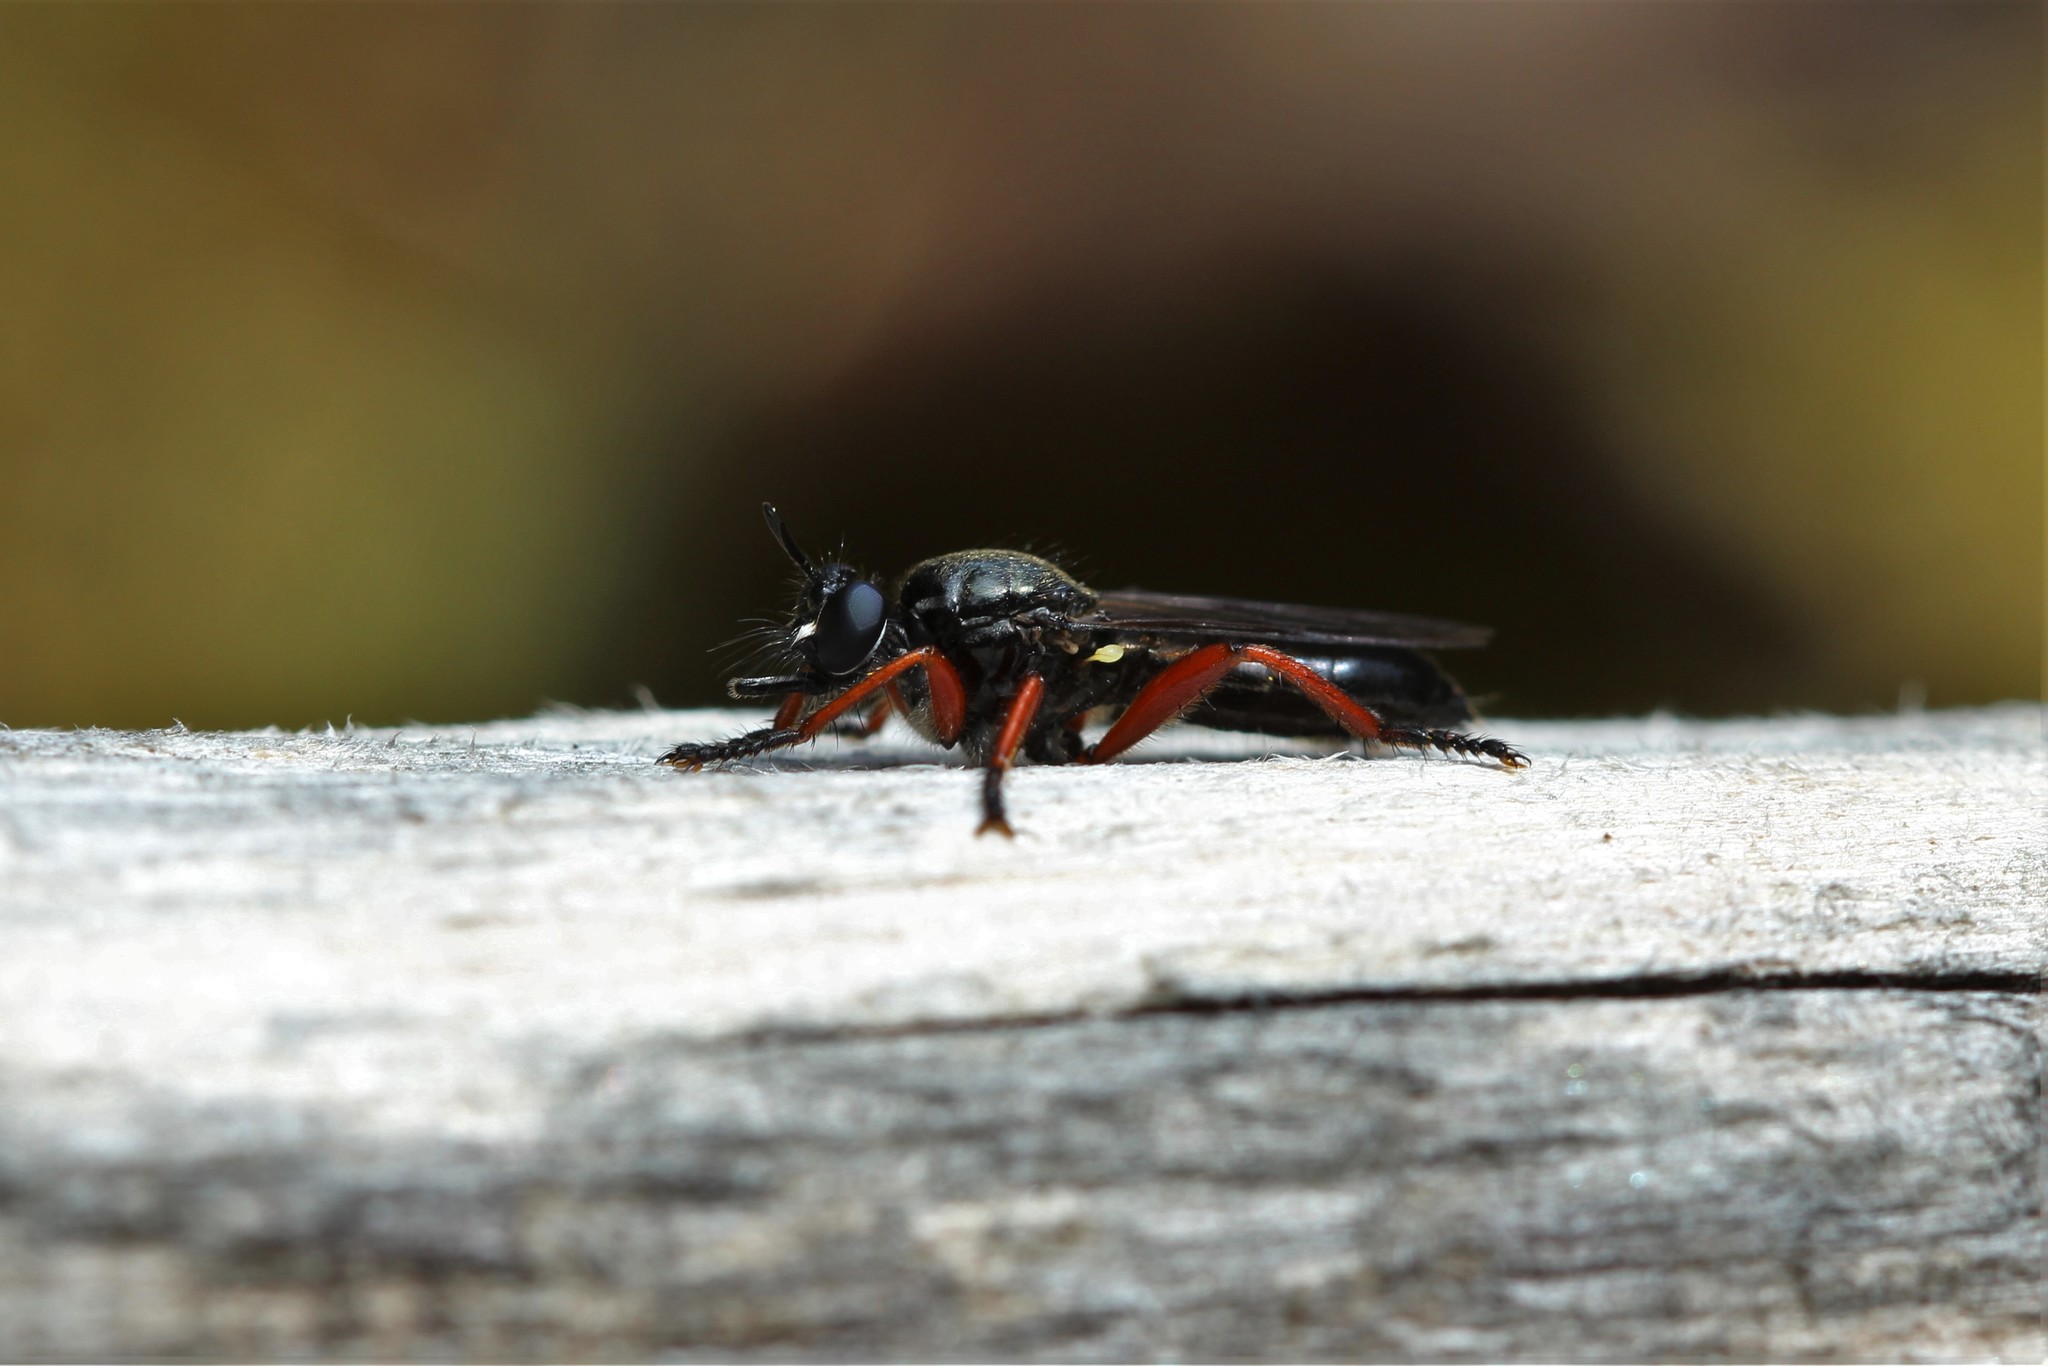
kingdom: Animalia
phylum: Arthropoda
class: Insecta
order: Diptera
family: Asilidae
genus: Laphria
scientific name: Laphria sadales
